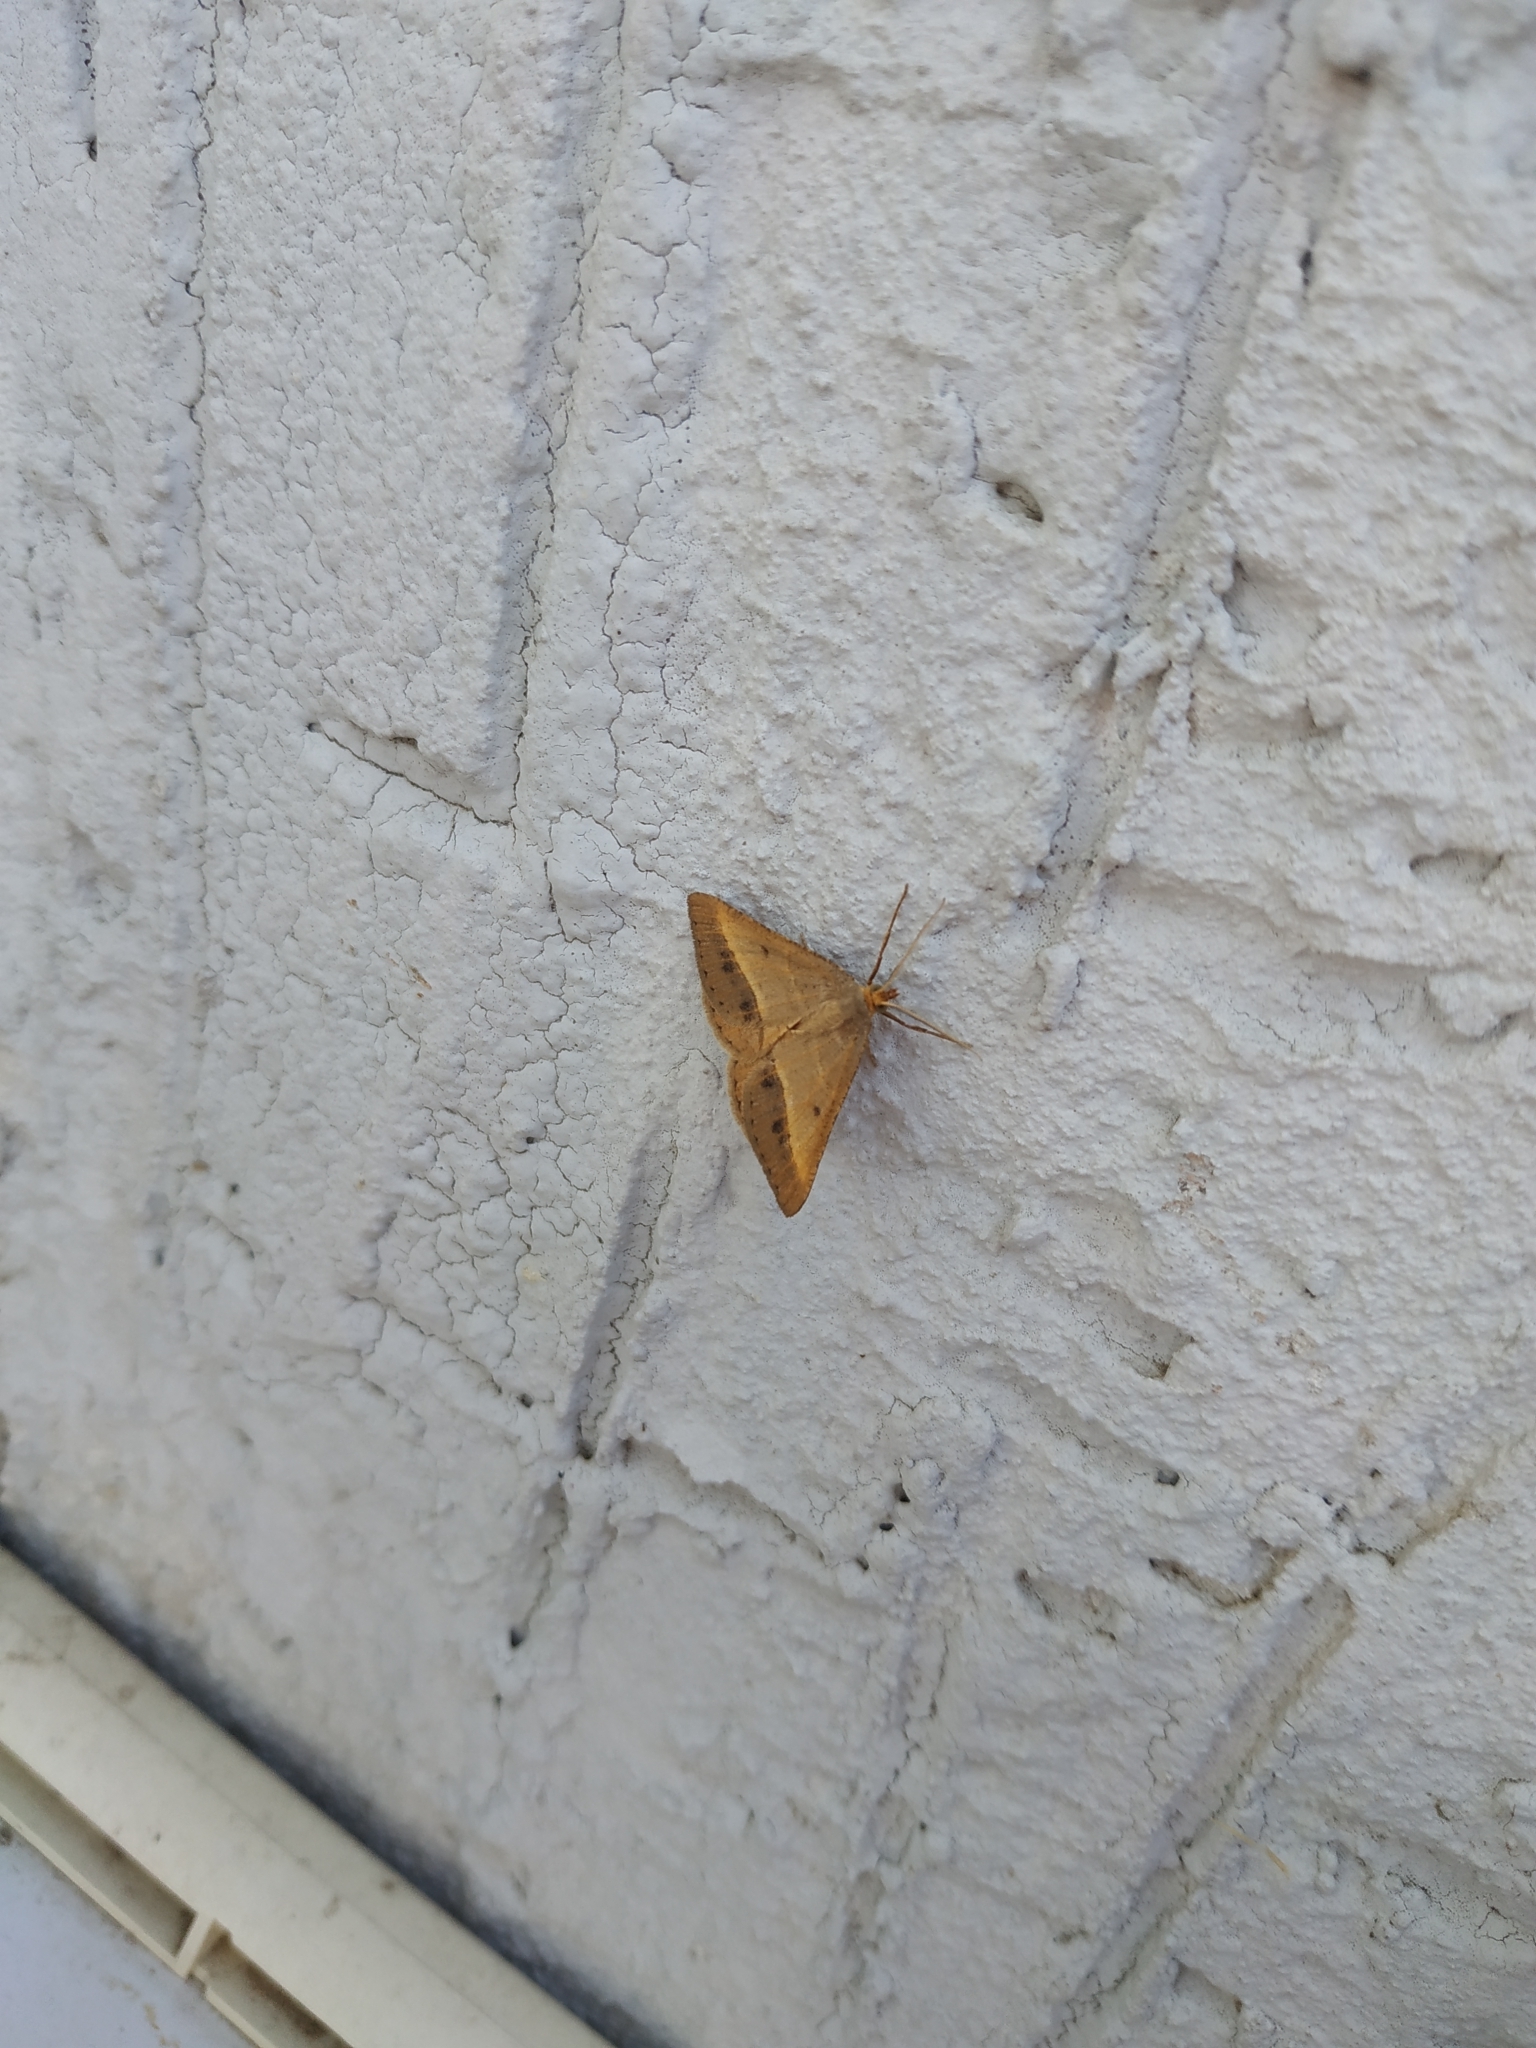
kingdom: Animalia
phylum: Arthropoda
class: Insecta
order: Lepidoptera
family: Geometridae
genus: Tephrina
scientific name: Tephrina arenacearia
